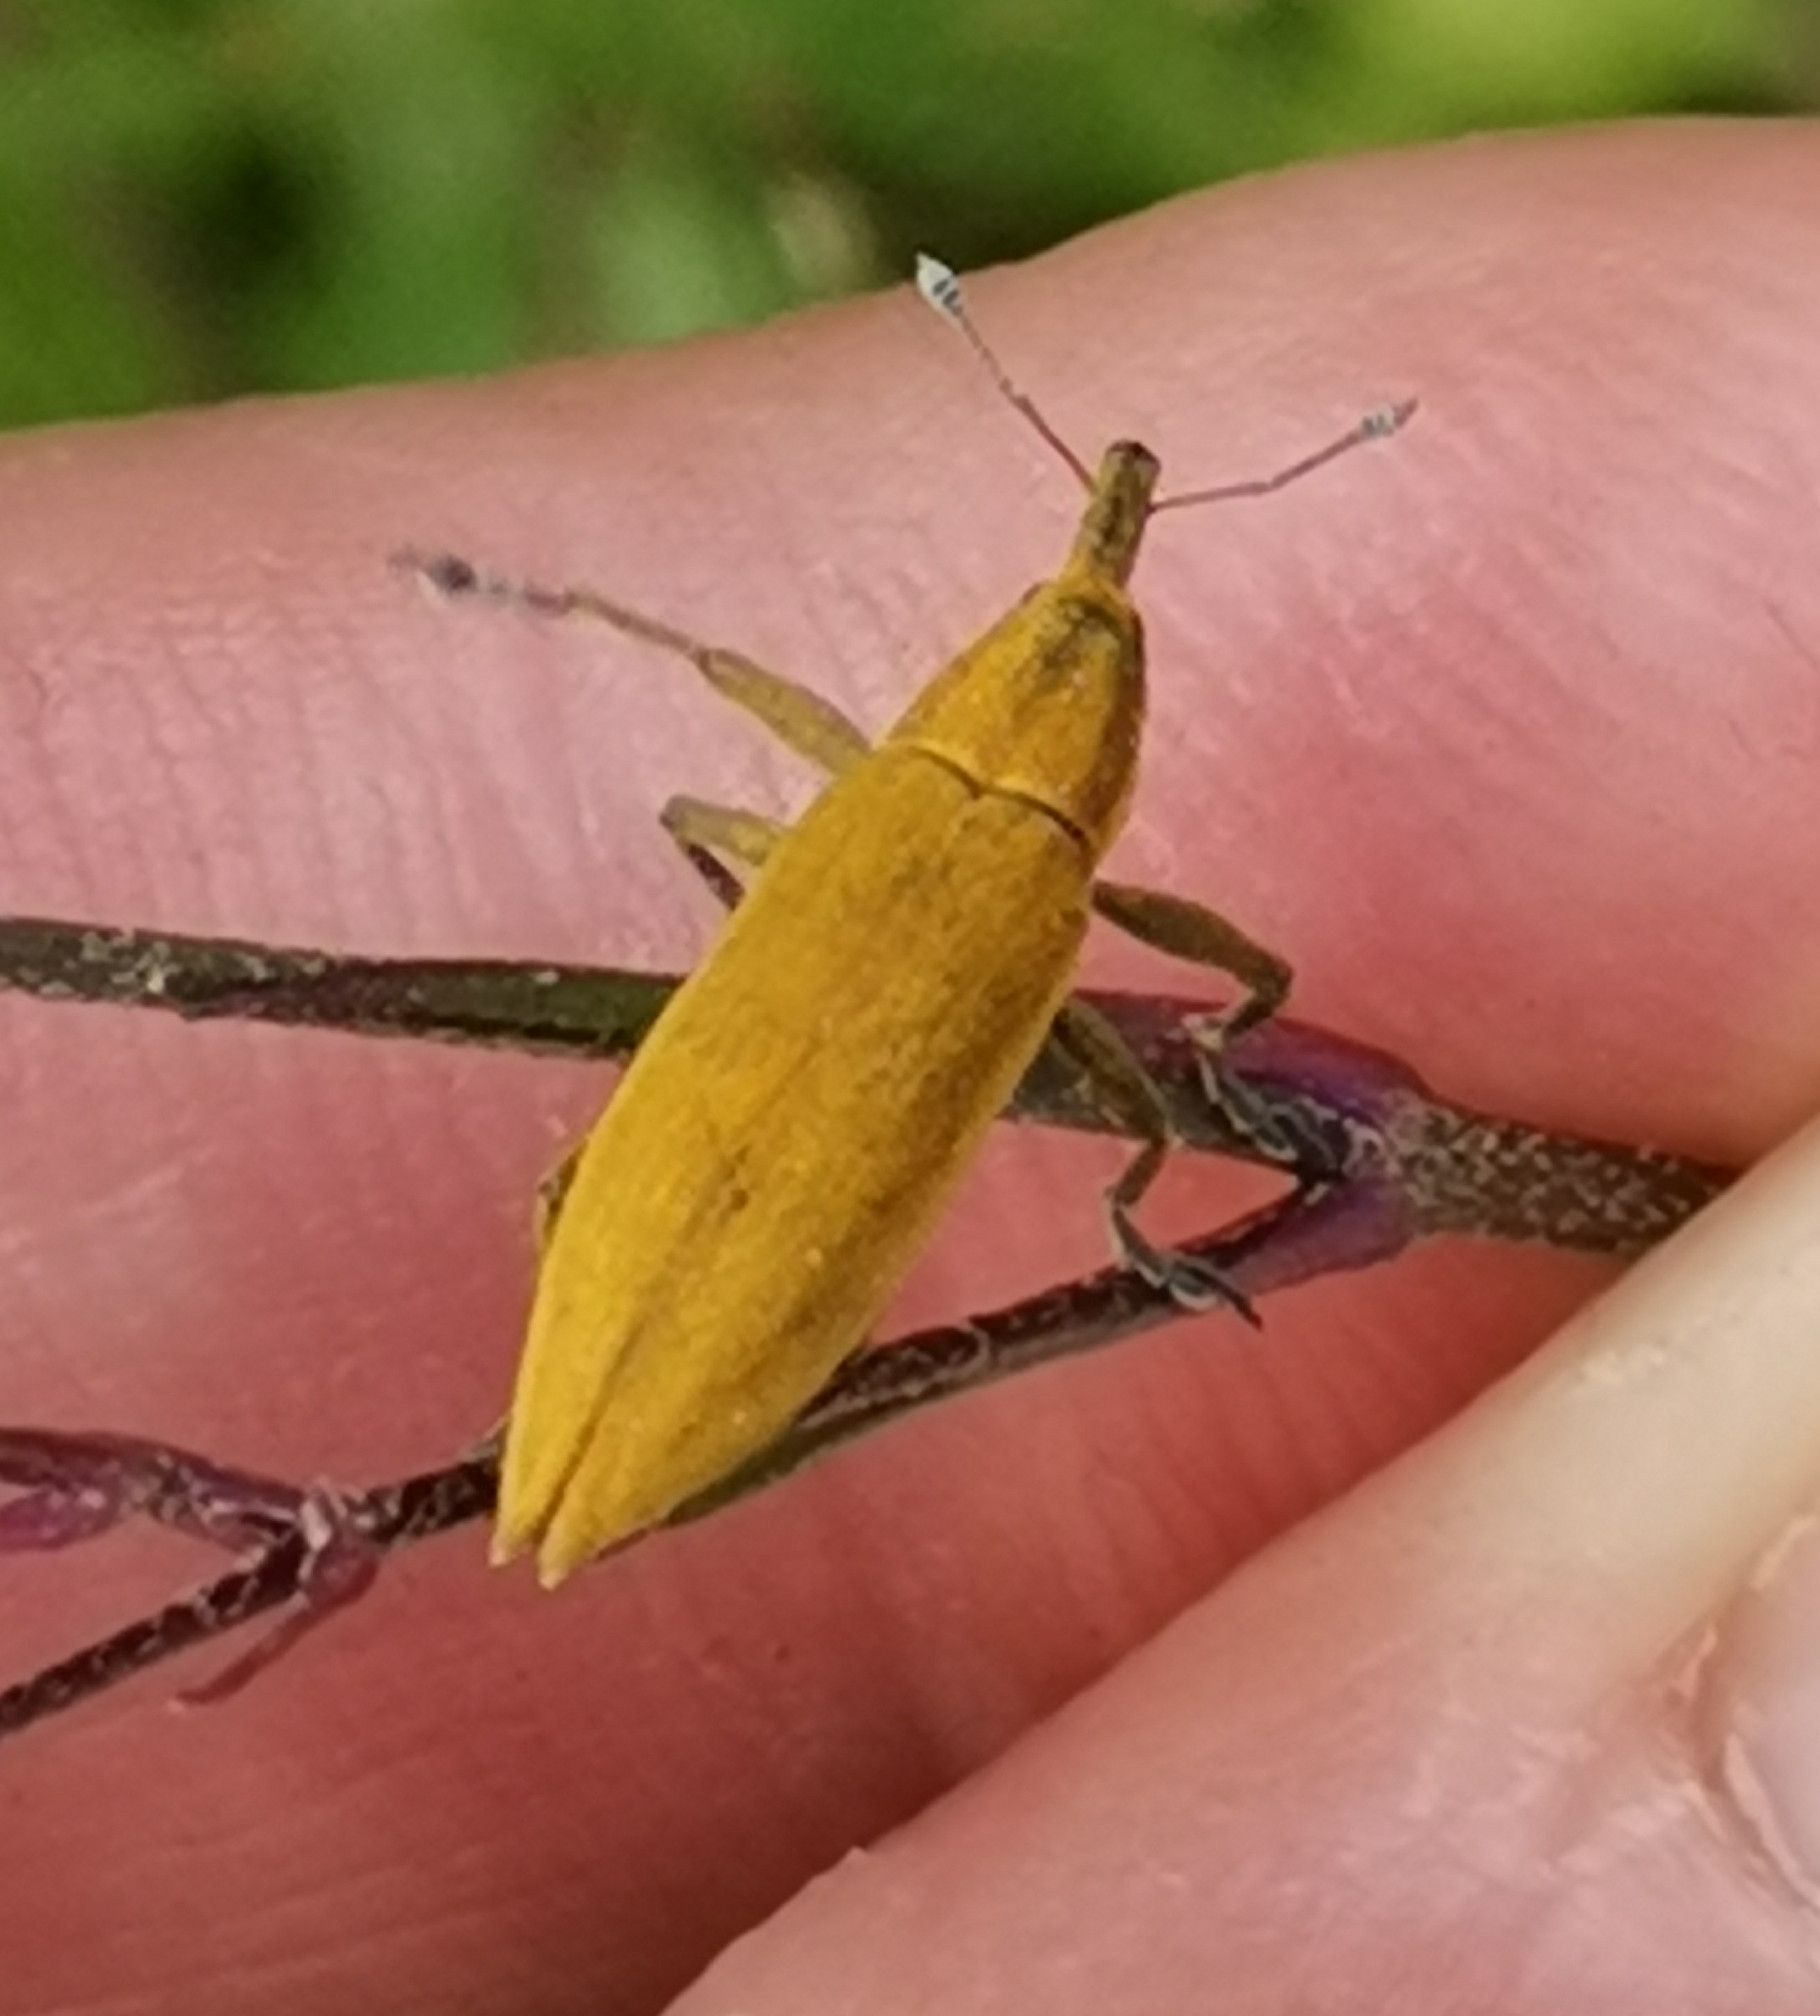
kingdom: Animalia
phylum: Arthropoda
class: Insecta
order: Coleoptera
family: Curculionidae
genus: Lixus
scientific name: Lixus iridis
